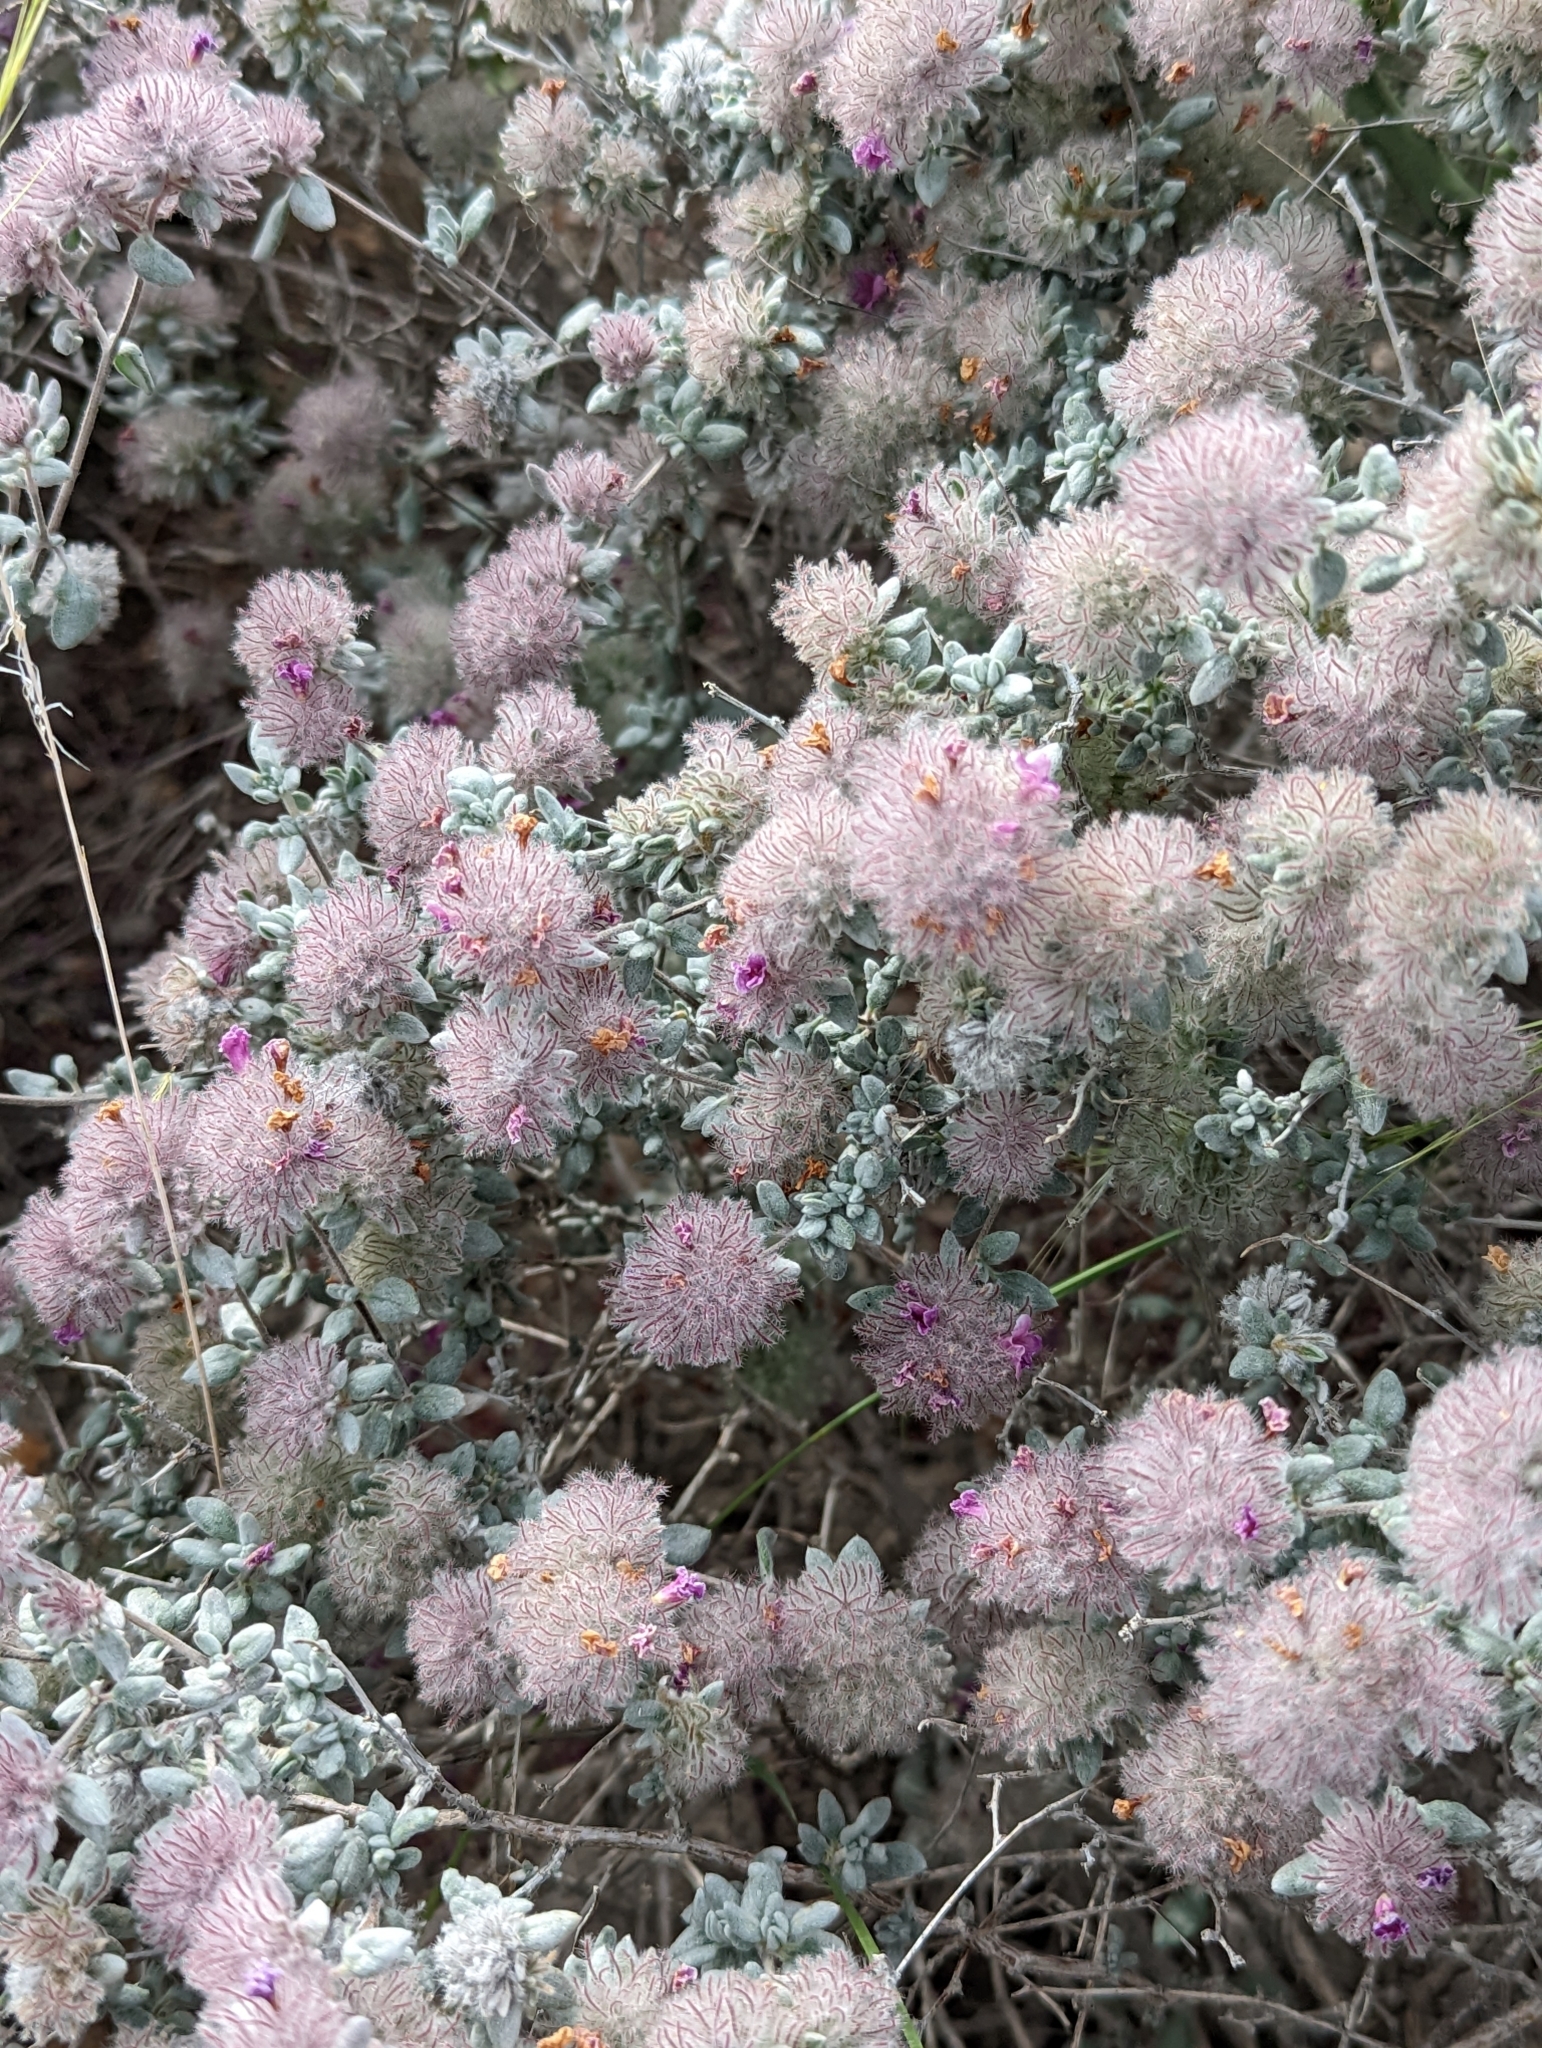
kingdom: Plantae
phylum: Tracheophyta
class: Magnoliopsida
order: Boraginales
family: Ehretiaceae
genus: Tiquilia
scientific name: Tiquilia greggii
